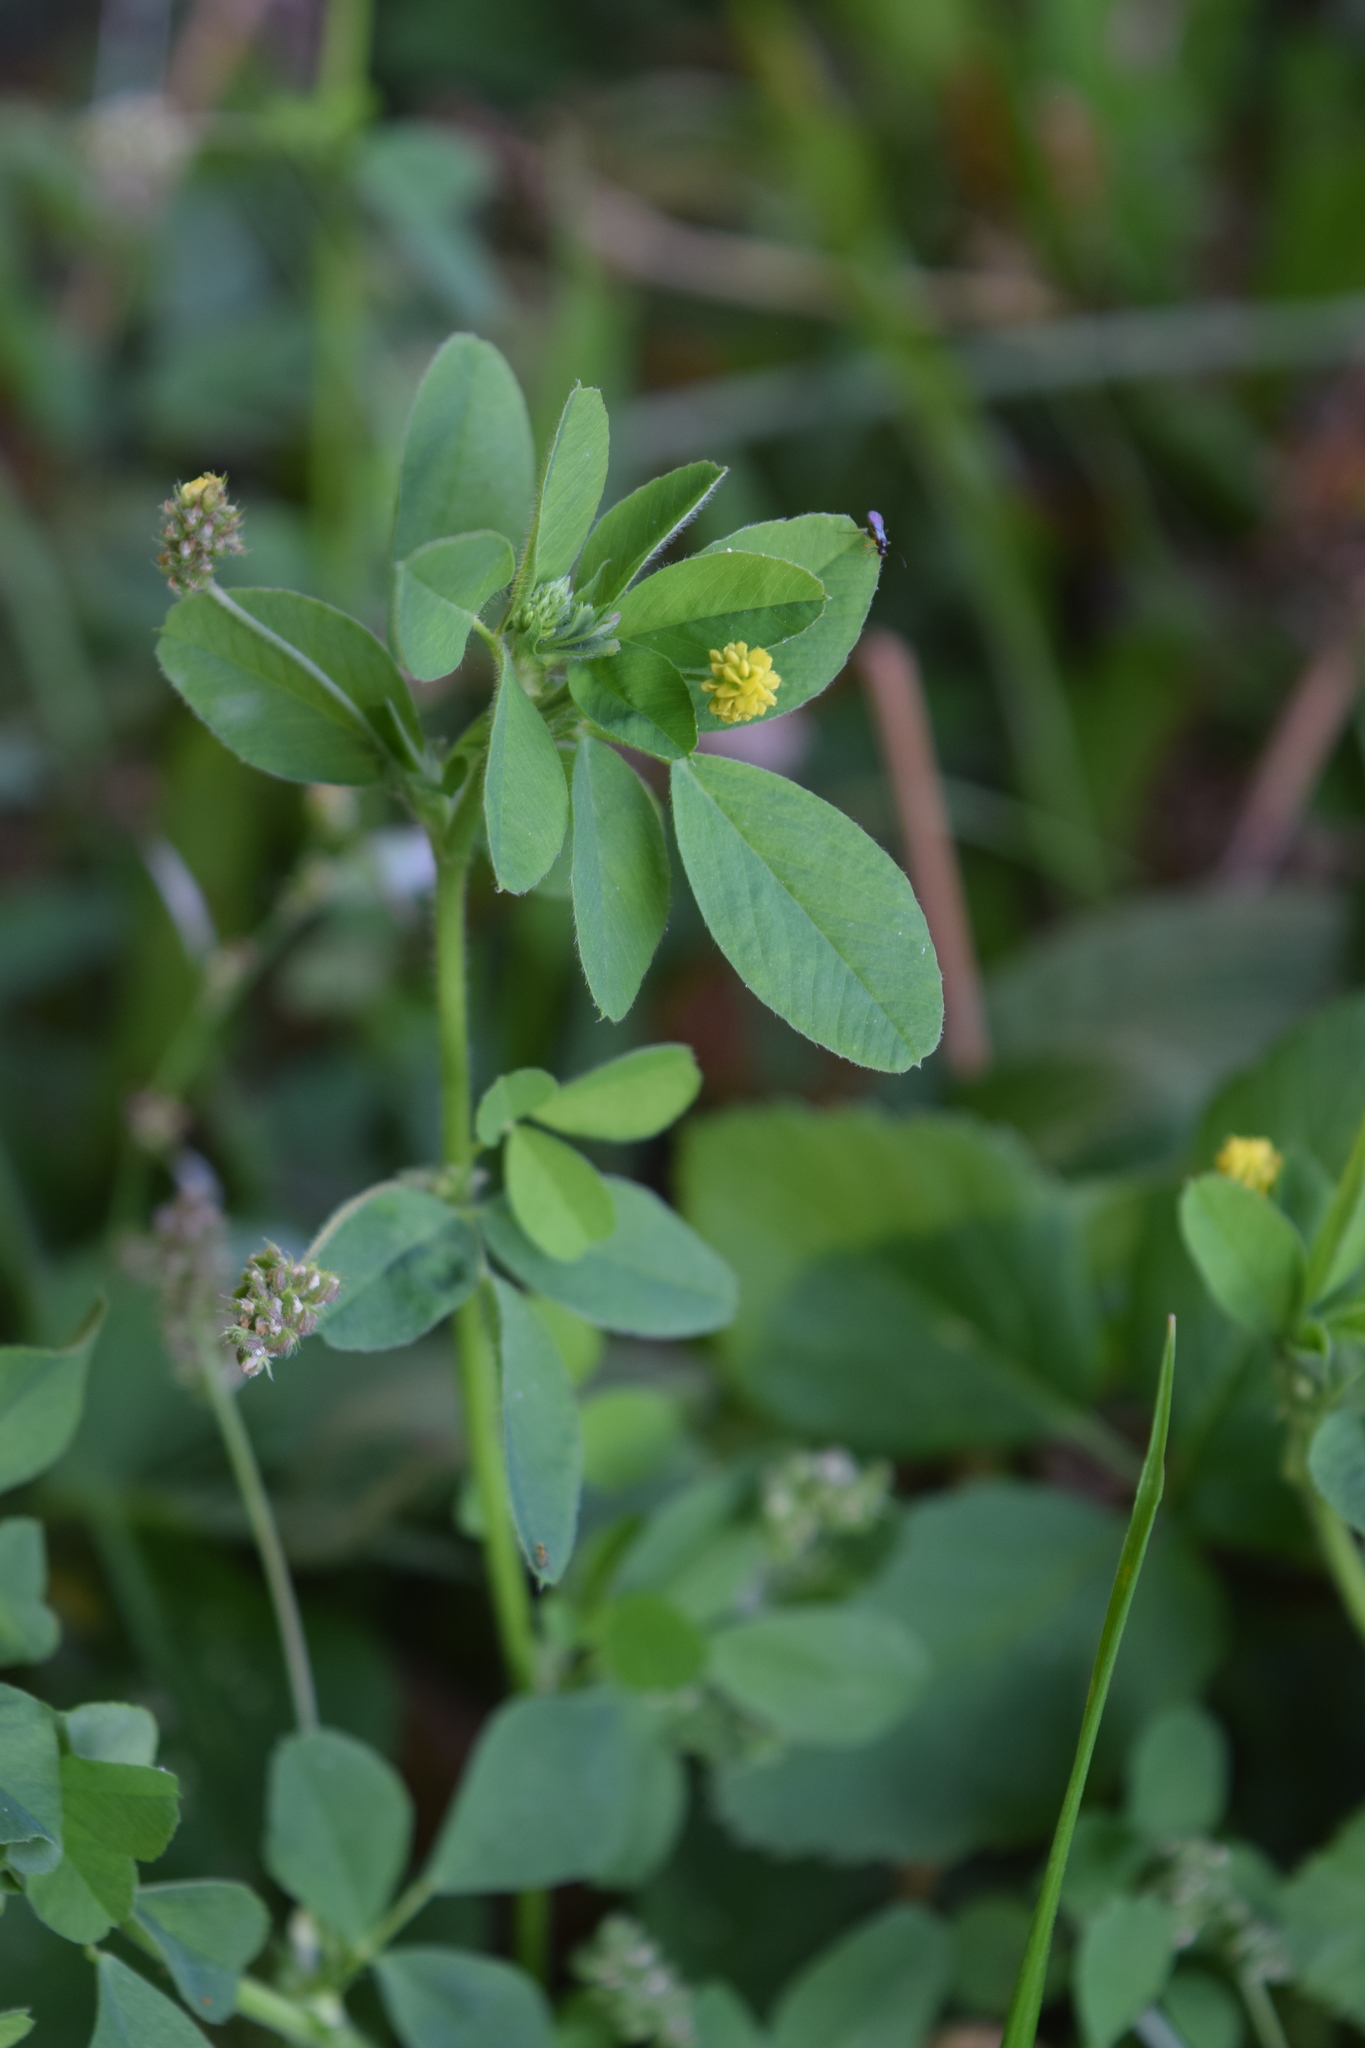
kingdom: Plantae
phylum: Tracheophyta
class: Magnoliopsida
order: Fabales
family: Fabaceae
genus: Medicago
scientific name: Medicago lupulina
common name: Black medick
